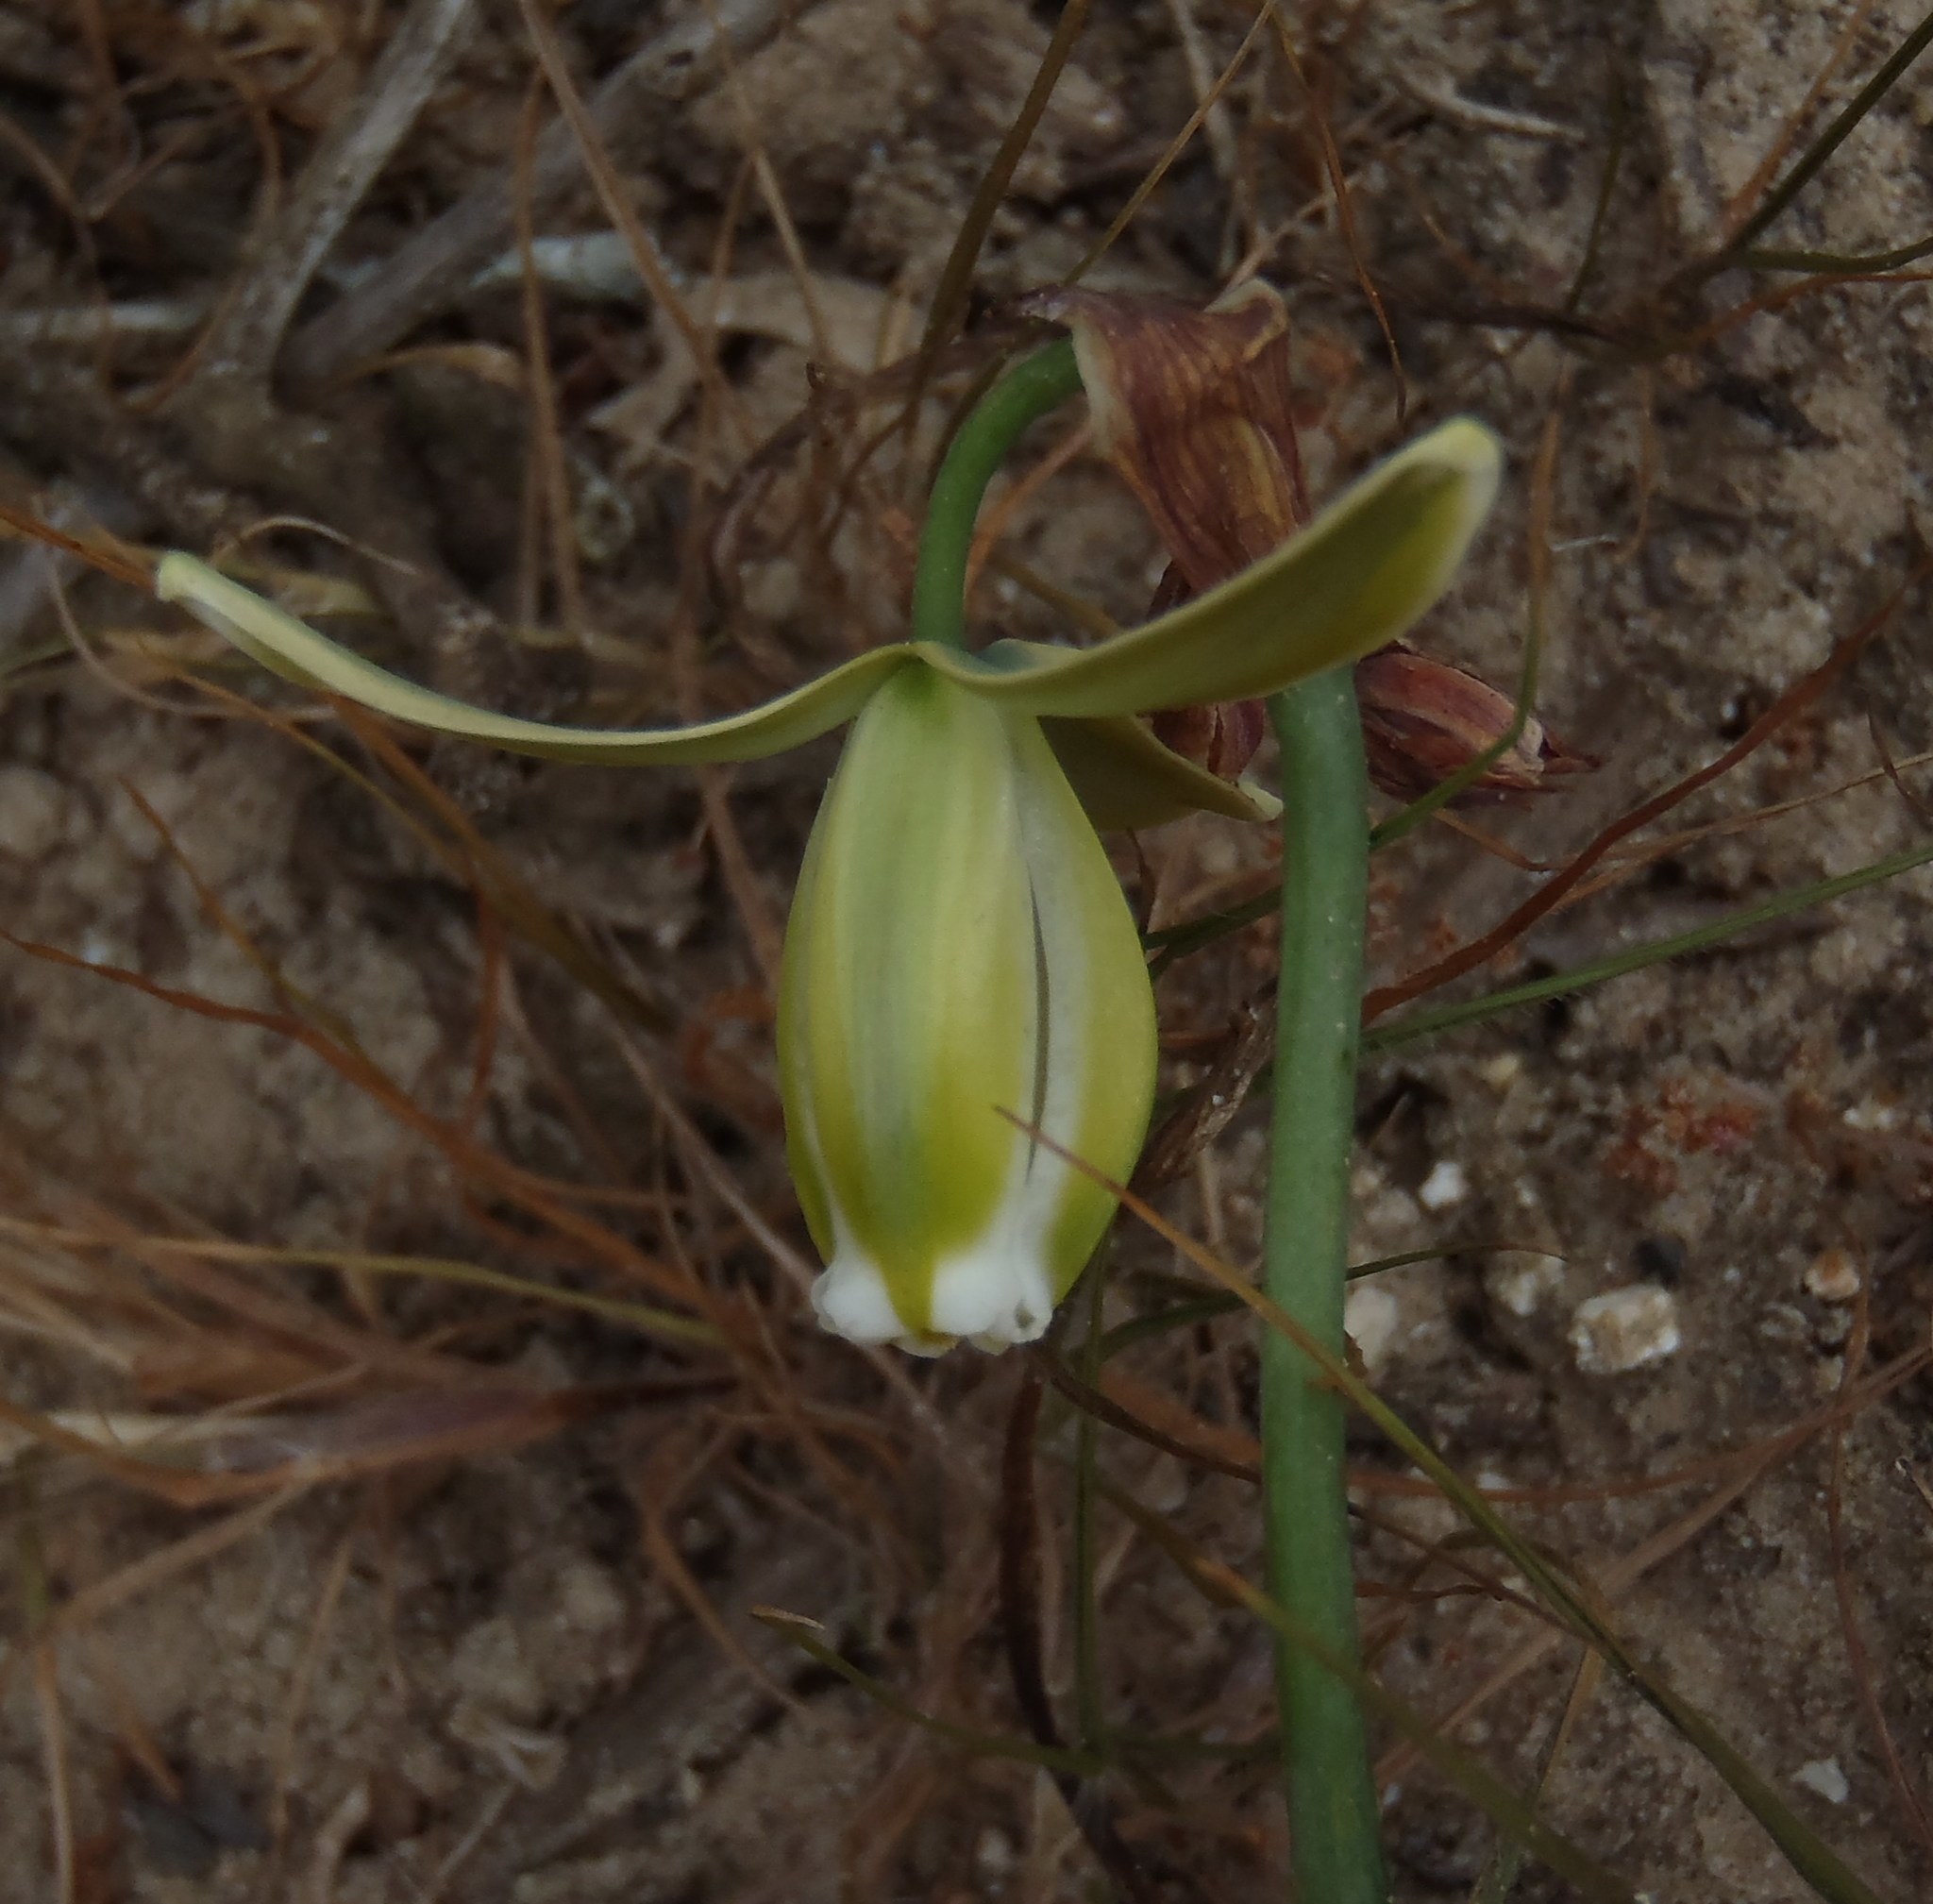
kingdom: Plantae
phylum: Tracheophyta
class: Liliopsida
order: Asparagales
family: Asparagaceae
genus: Albuca
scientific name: Albuca juncifolia
